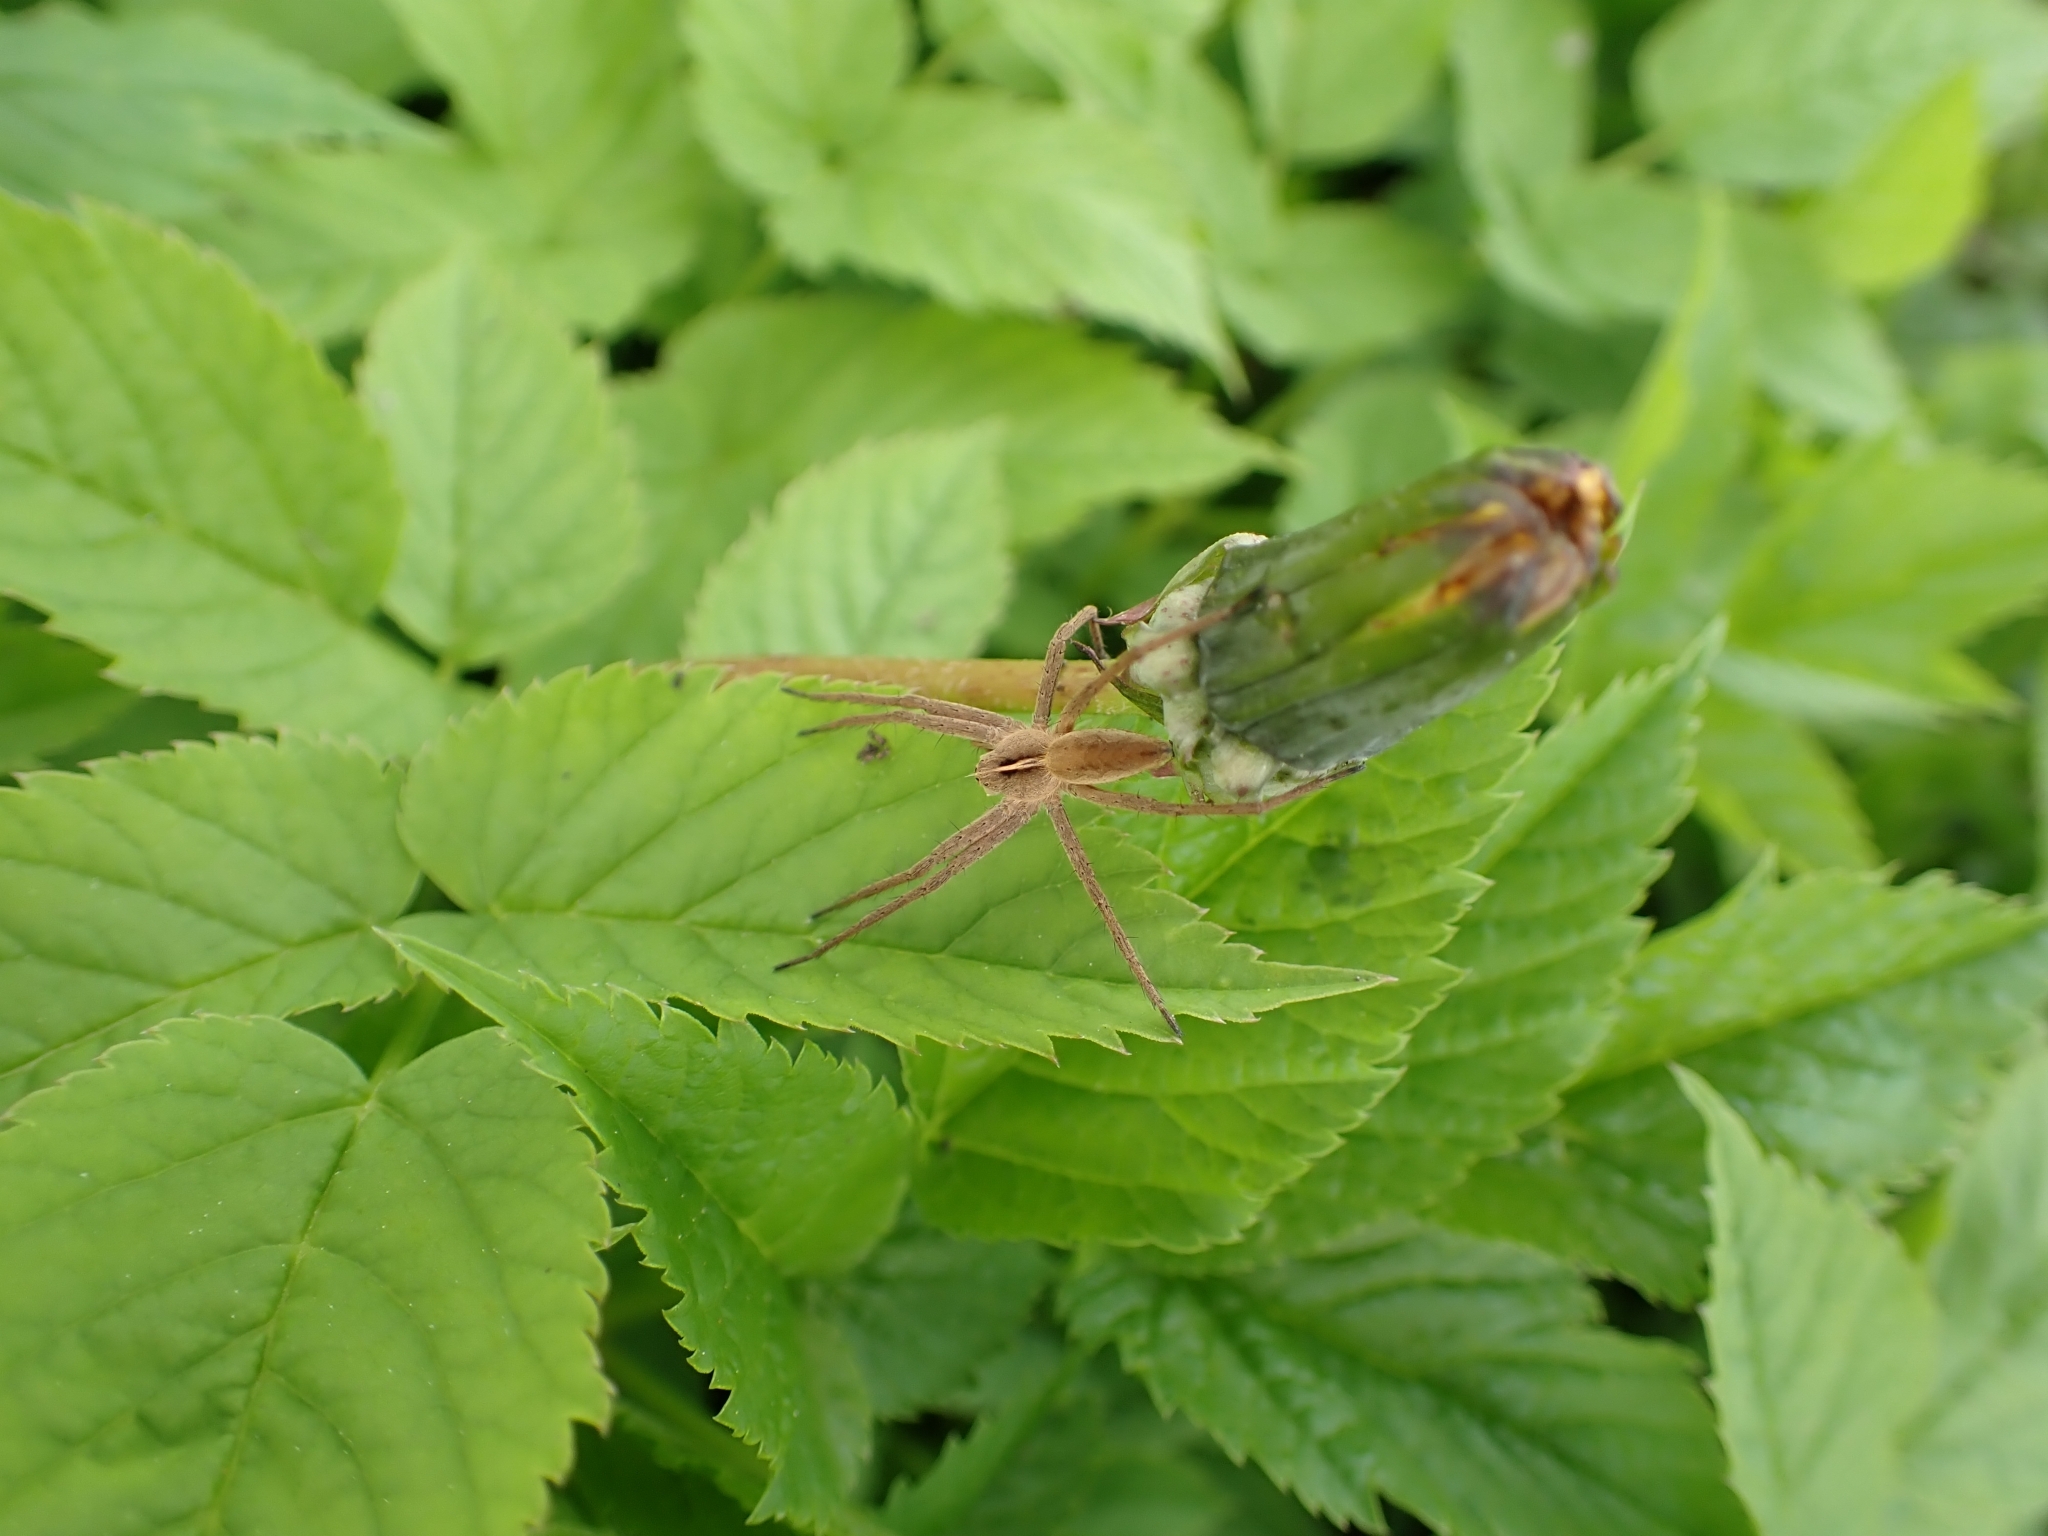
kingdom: Animalia
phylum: Arthropoda
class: Arachnida
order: Araneae
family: Pisauridae
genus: Pisaura
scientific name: Pisaura mirabilis
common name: Tent spider
